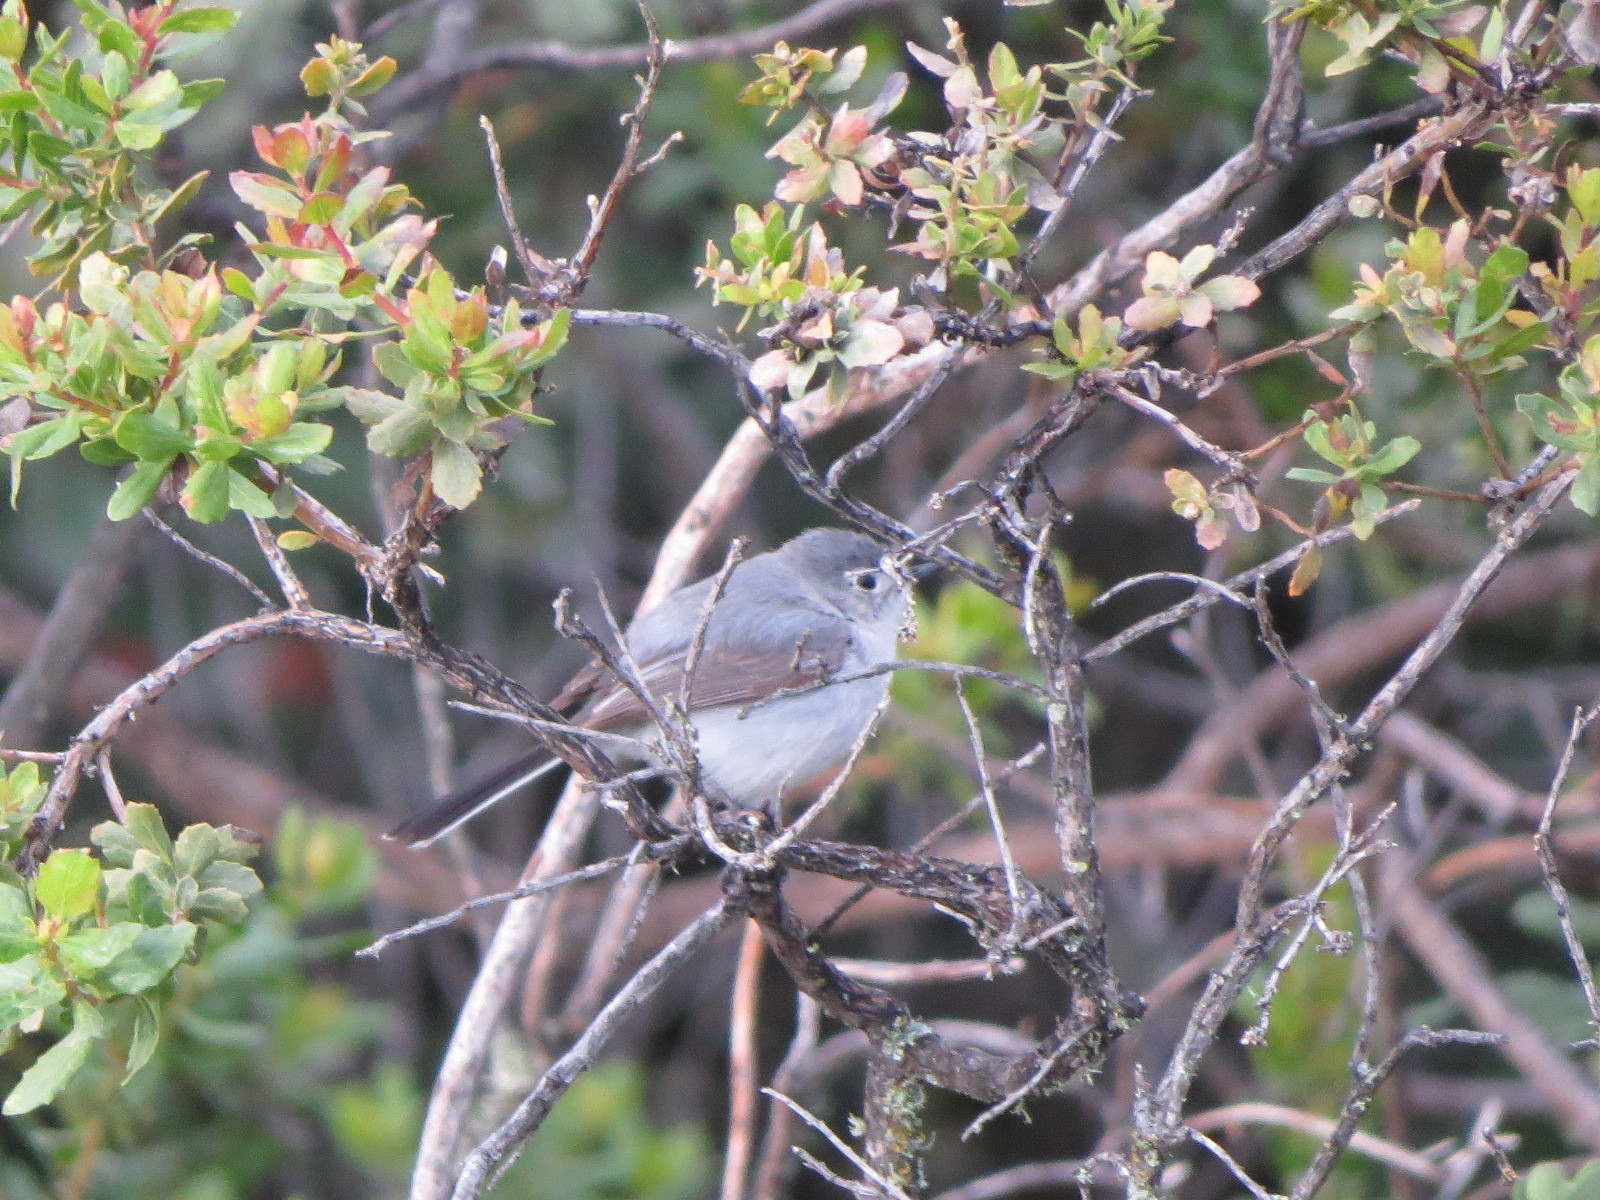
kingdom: Animalia
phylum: Chordata
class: Aves
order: Passeriformes
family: Polioptilidae
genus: Polioptila
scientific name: Polioptila caerulea
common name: Blue-gray gnatcatcher
